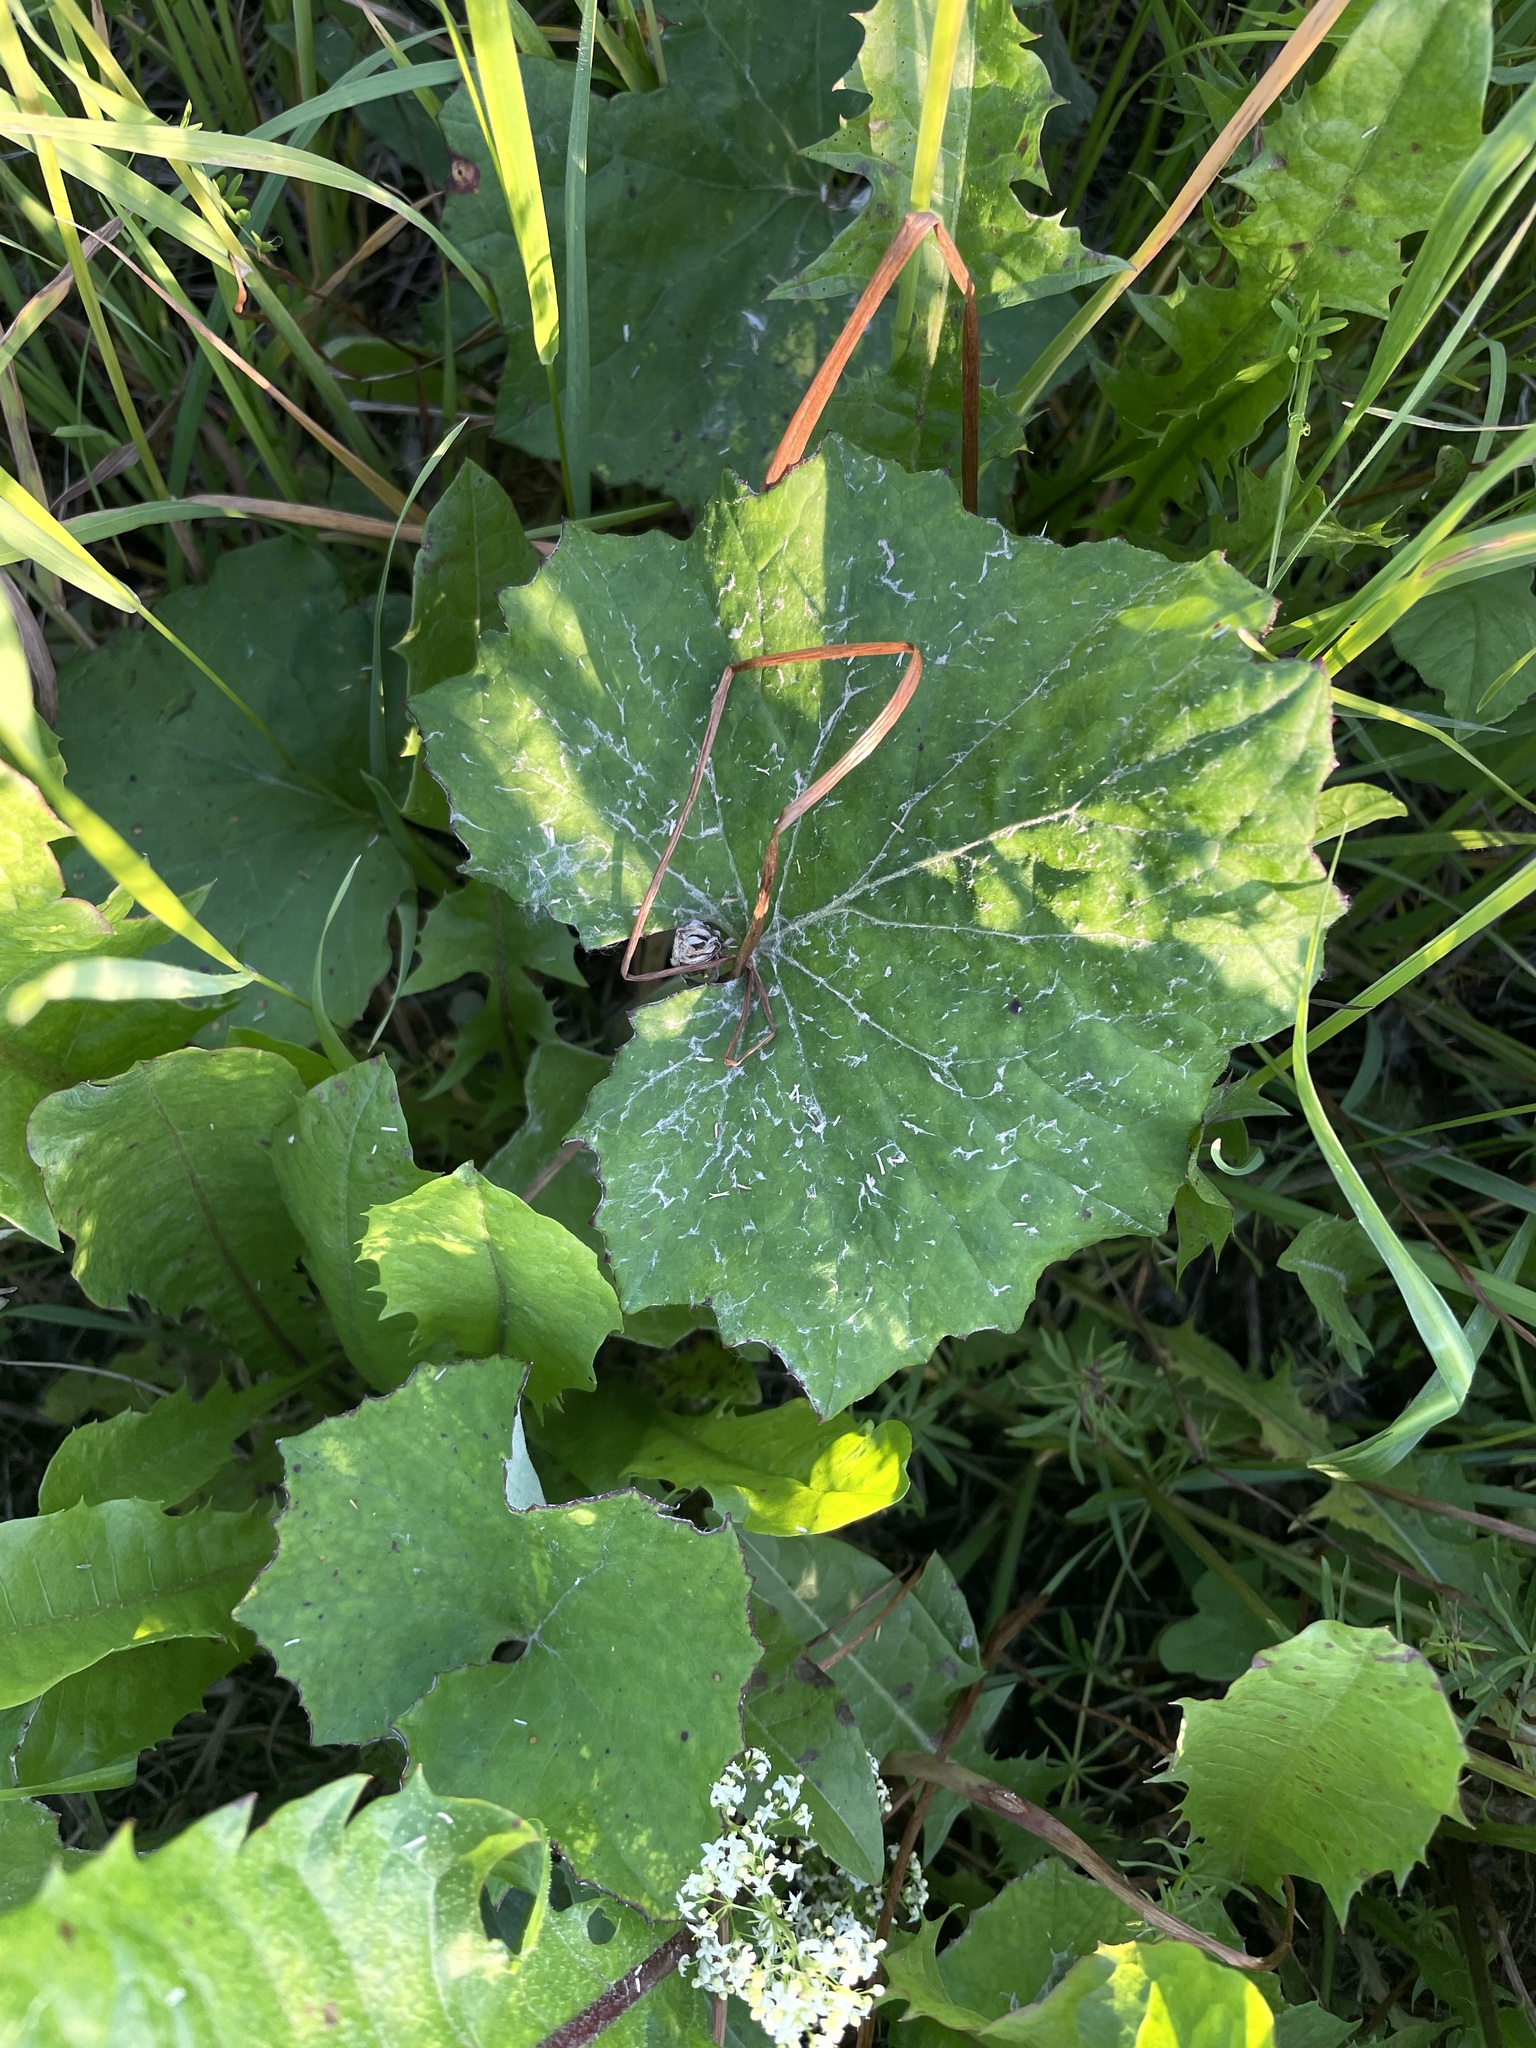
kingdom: Plantae
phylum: Tracheophyta
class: Magnoliopsida
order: Asterales
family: Asteraceae
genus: Tussilago
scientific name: Tussilago farfara
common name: Coltsfoot
